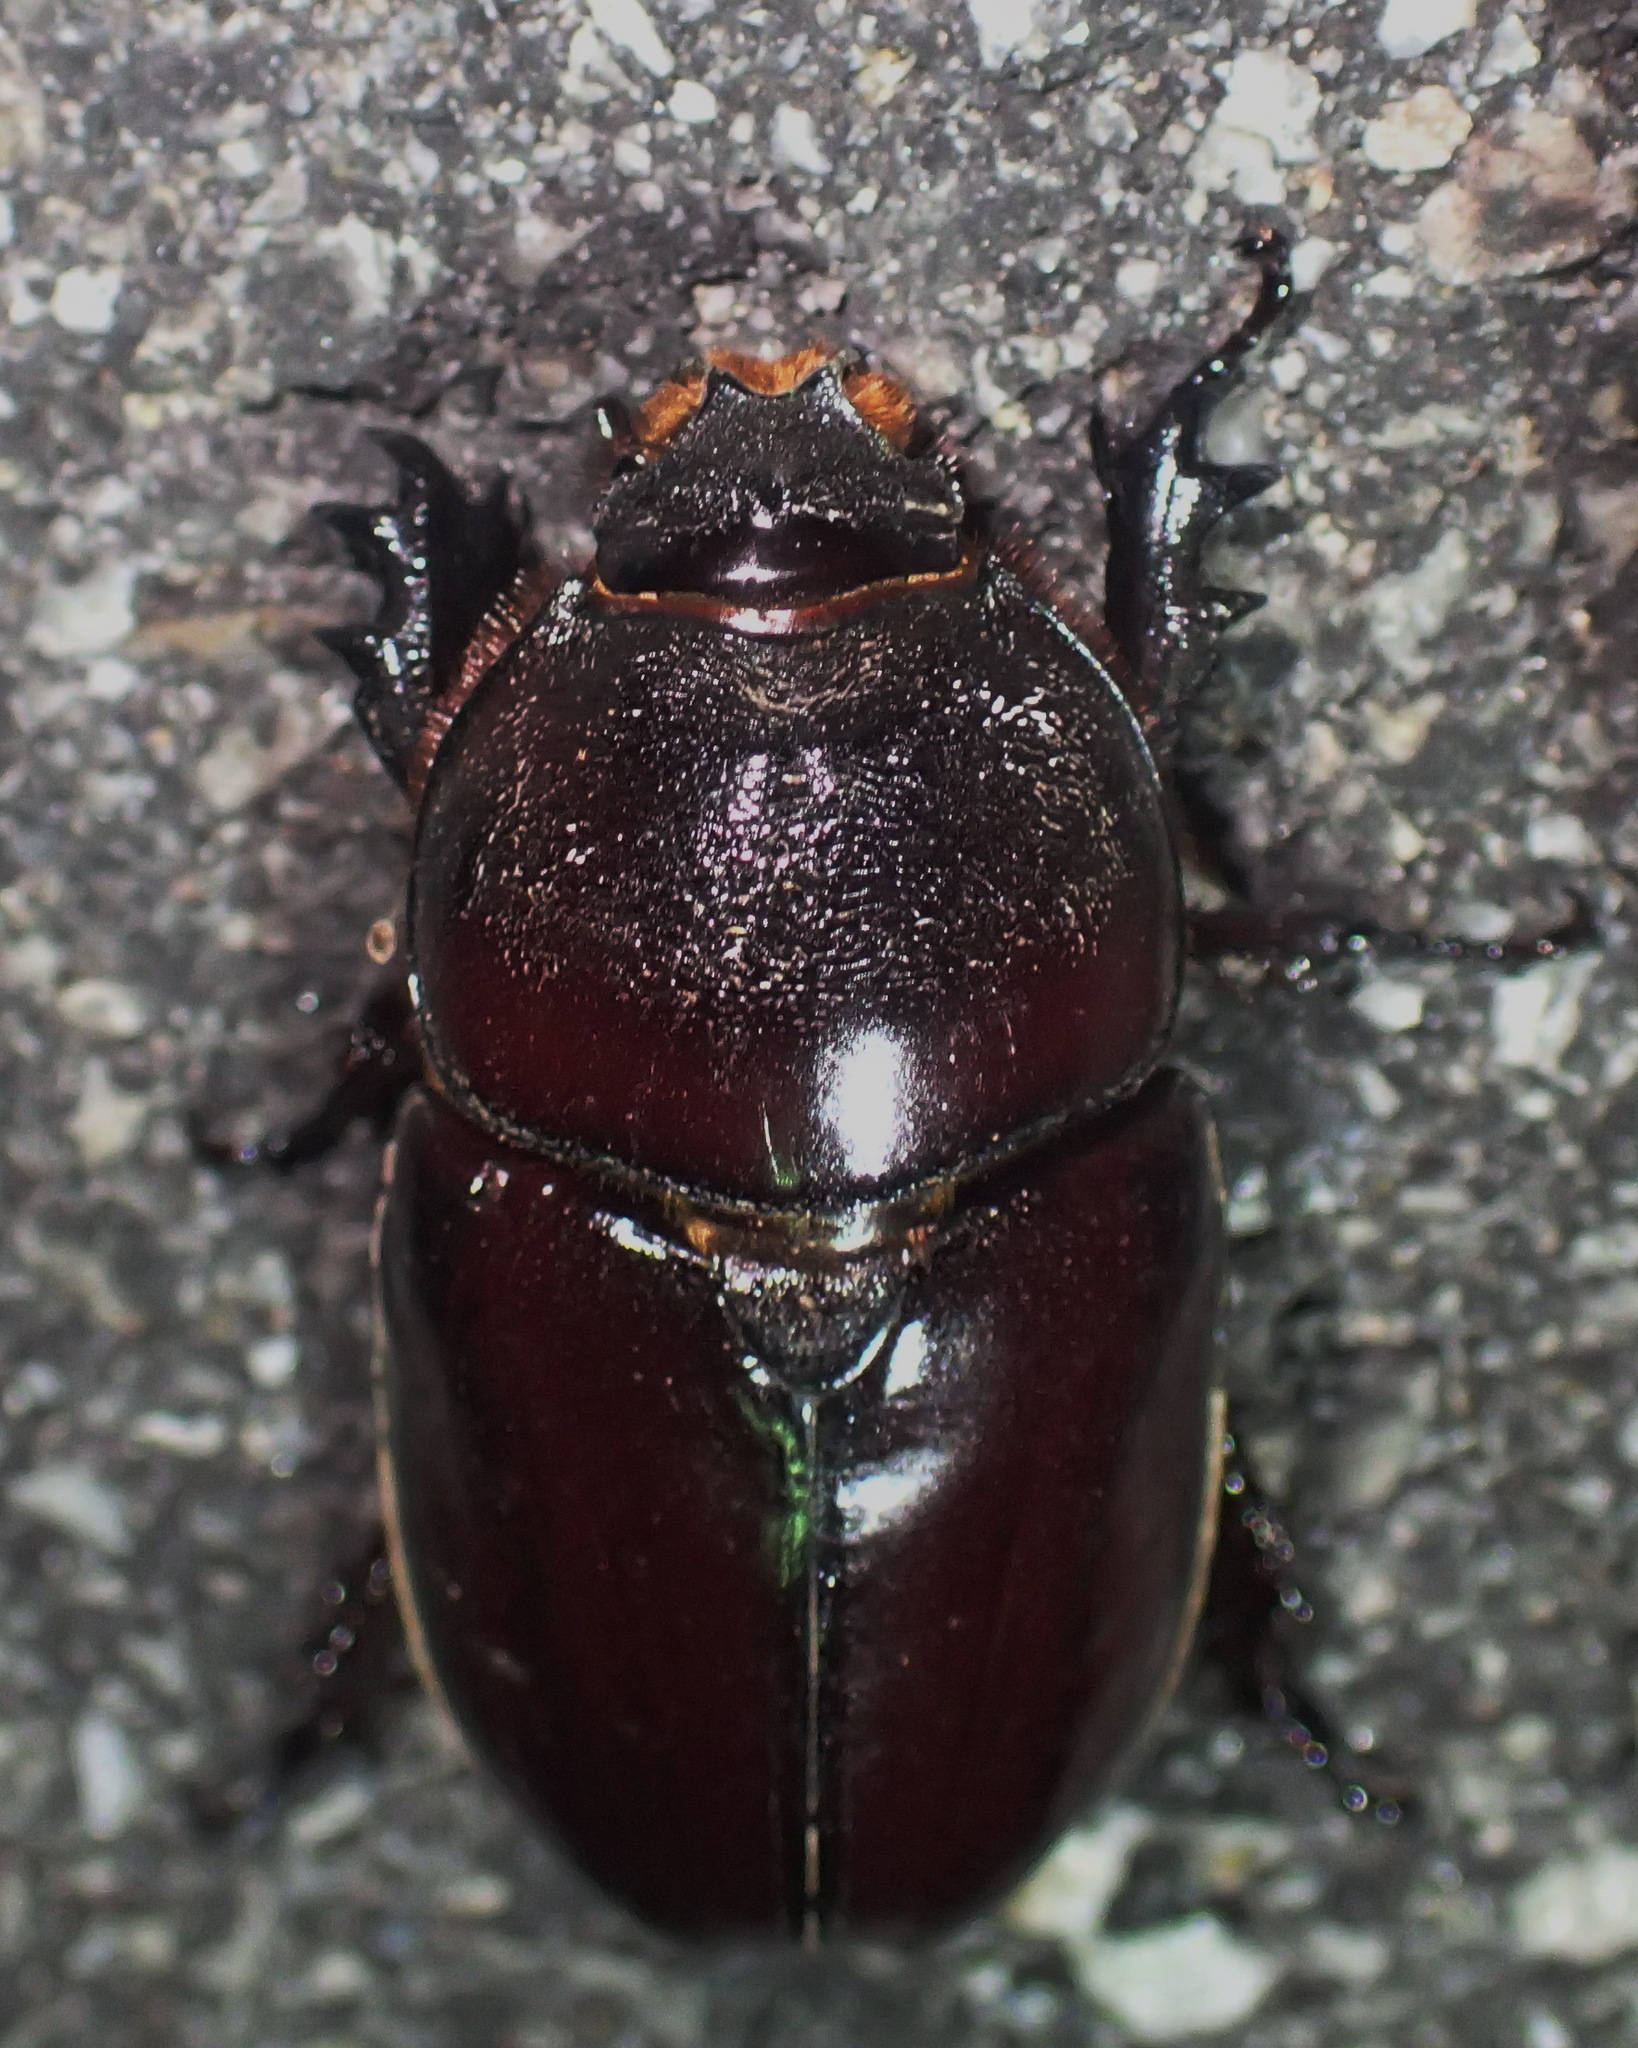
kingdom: Animalia
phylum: Arthropoda
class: Insecta
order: Coleoptera
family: Scarabaeidae
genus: Oryctes
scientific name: Oryctes boas
